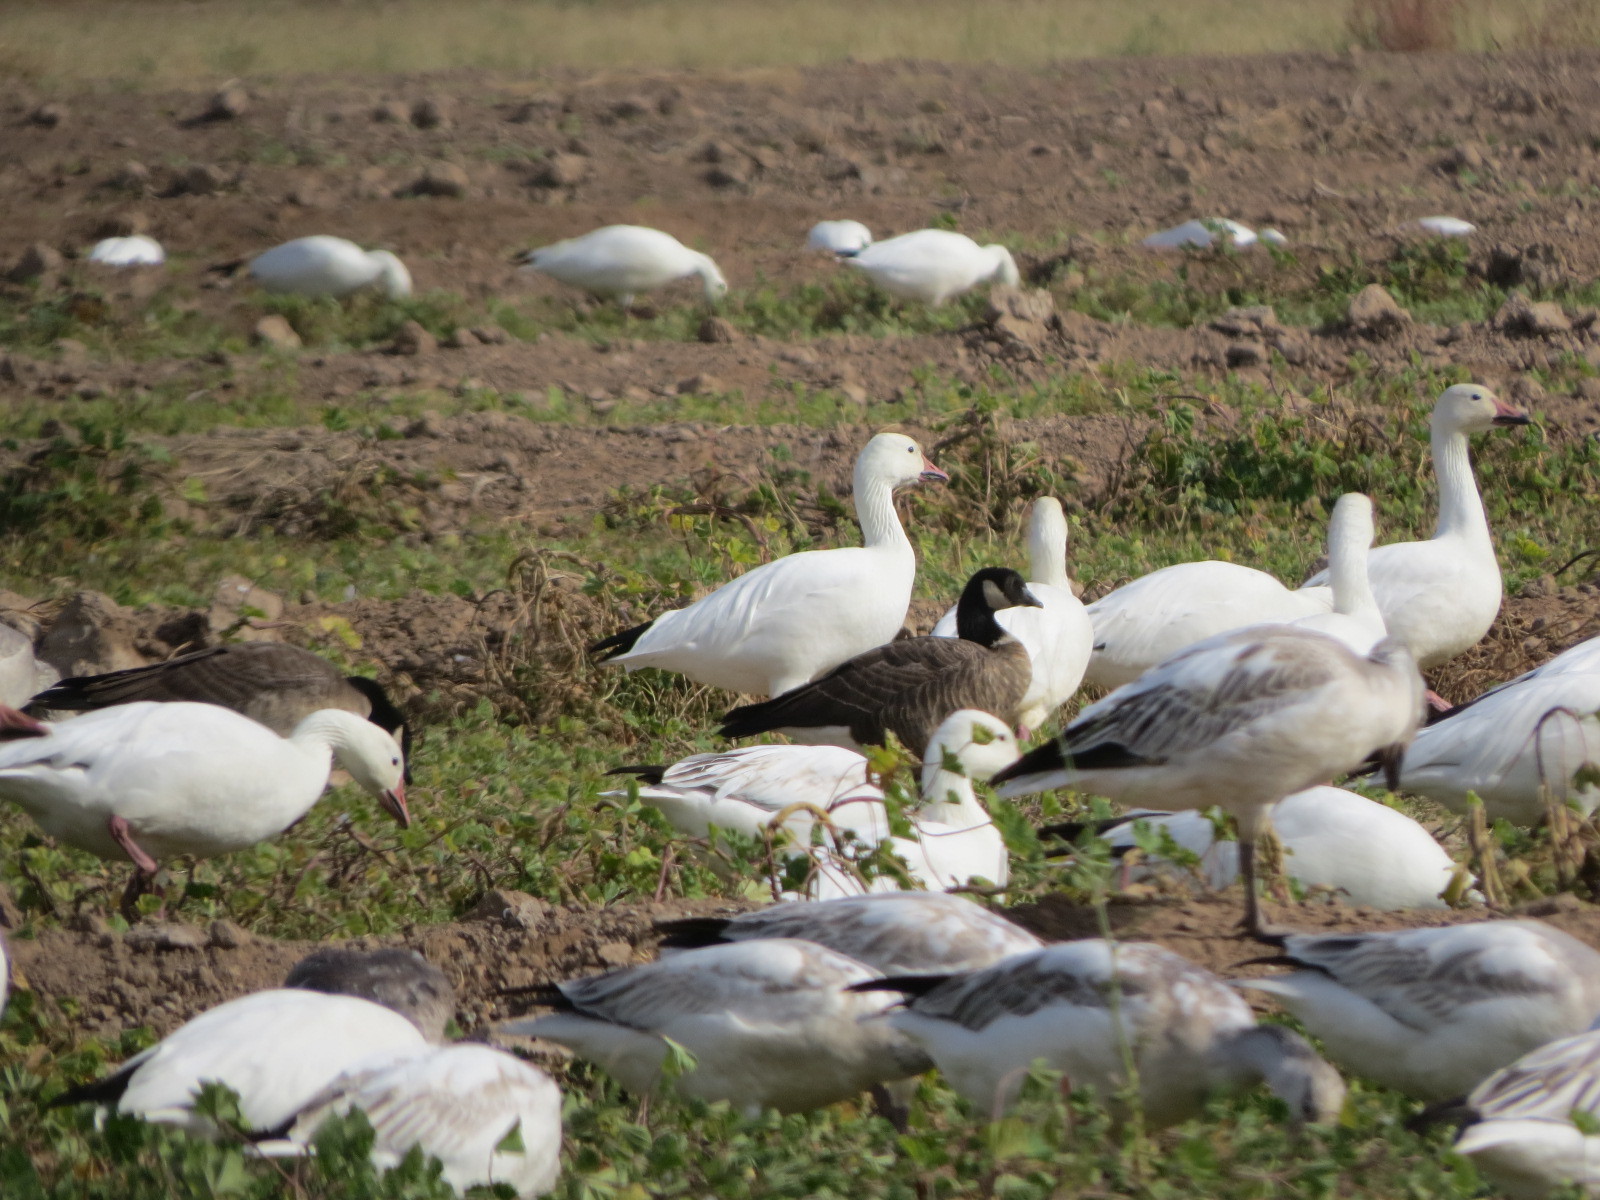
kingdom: Animalia
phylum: Chordata
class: Aves
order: Anseriformes
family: Anatidae
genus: Branta
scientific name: Branta hutchinsii
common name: Cackling goose
